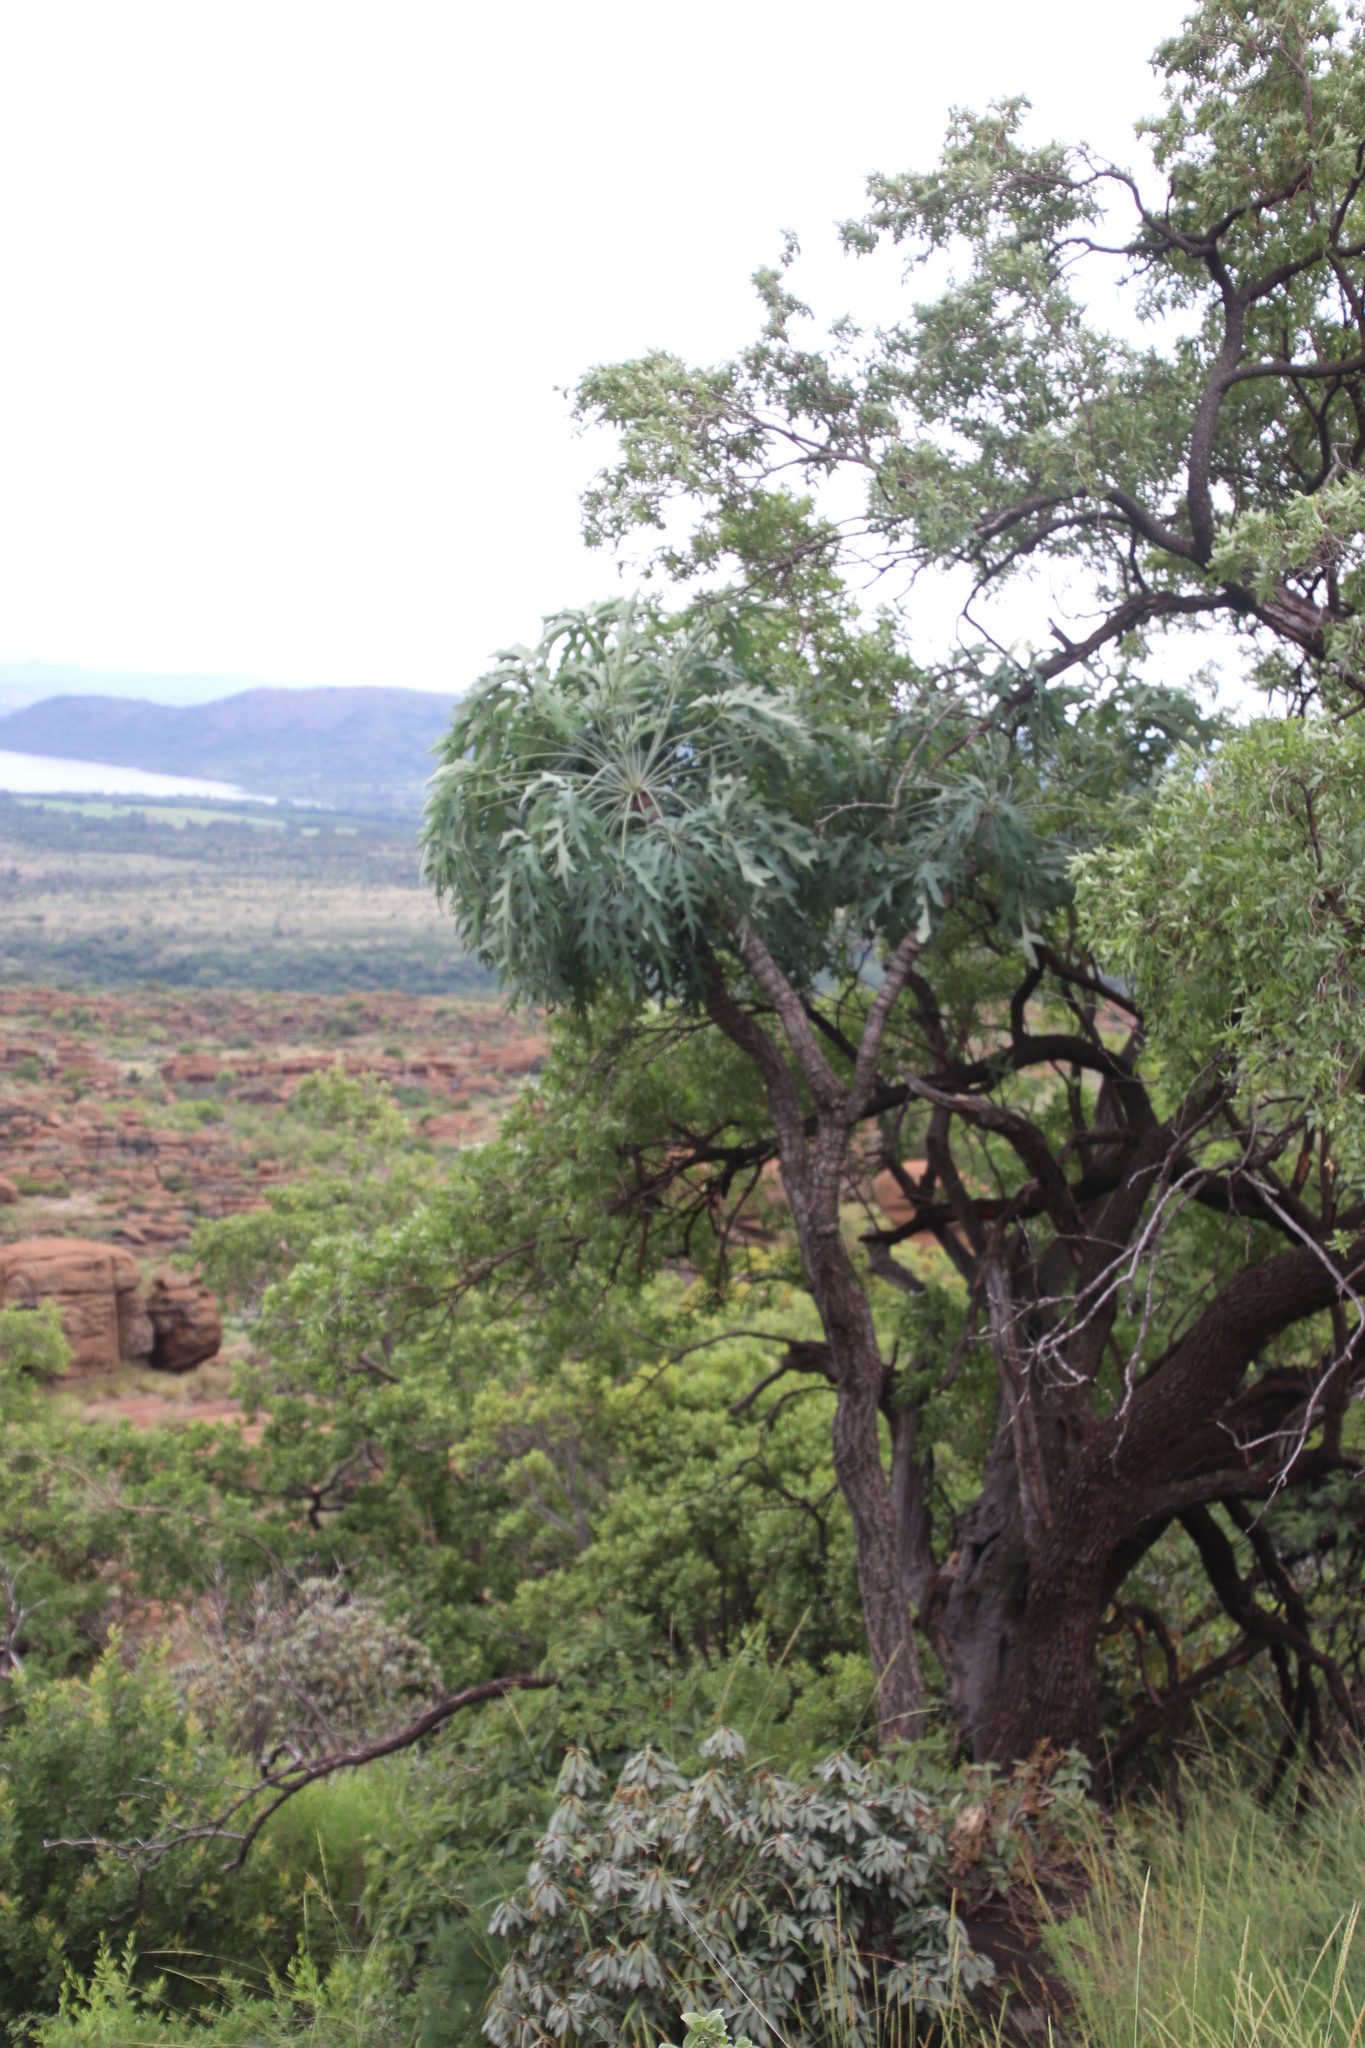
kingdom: Plantae
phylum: Tracheophyta
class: Magnoliopsida
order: Apiales
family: Araliaceae
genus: Cussonia
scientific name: Cussonia paniculata
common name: Cabbagetree
